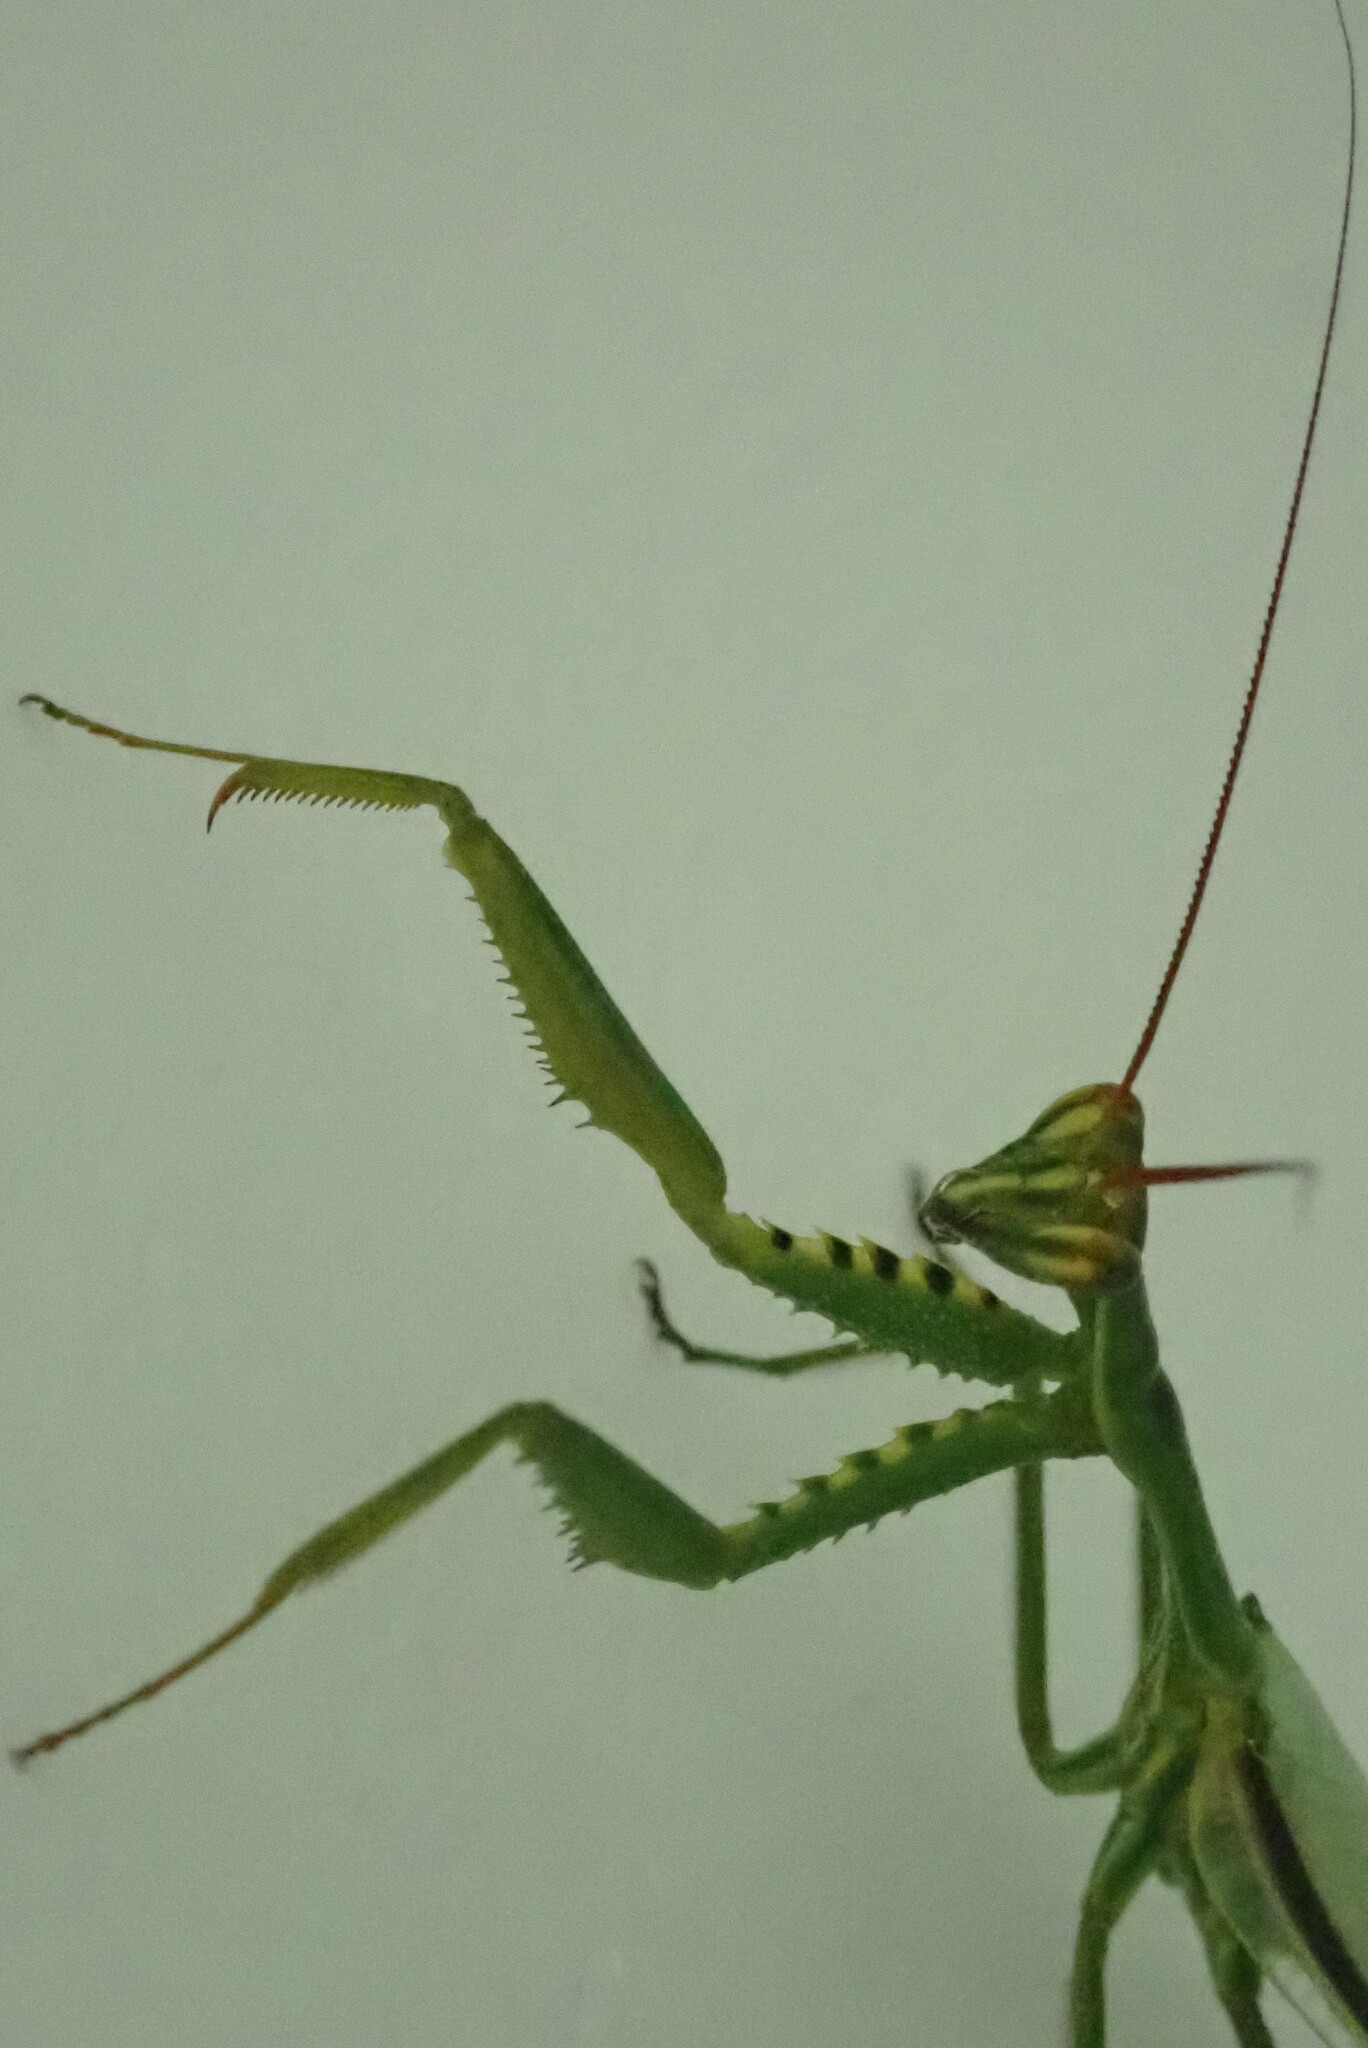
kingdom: Animalia
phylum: Arthropoda
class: Insecta
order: Mantodea
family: Photinaidae
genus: Cardioptera
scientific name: Cardioptera squalodon
